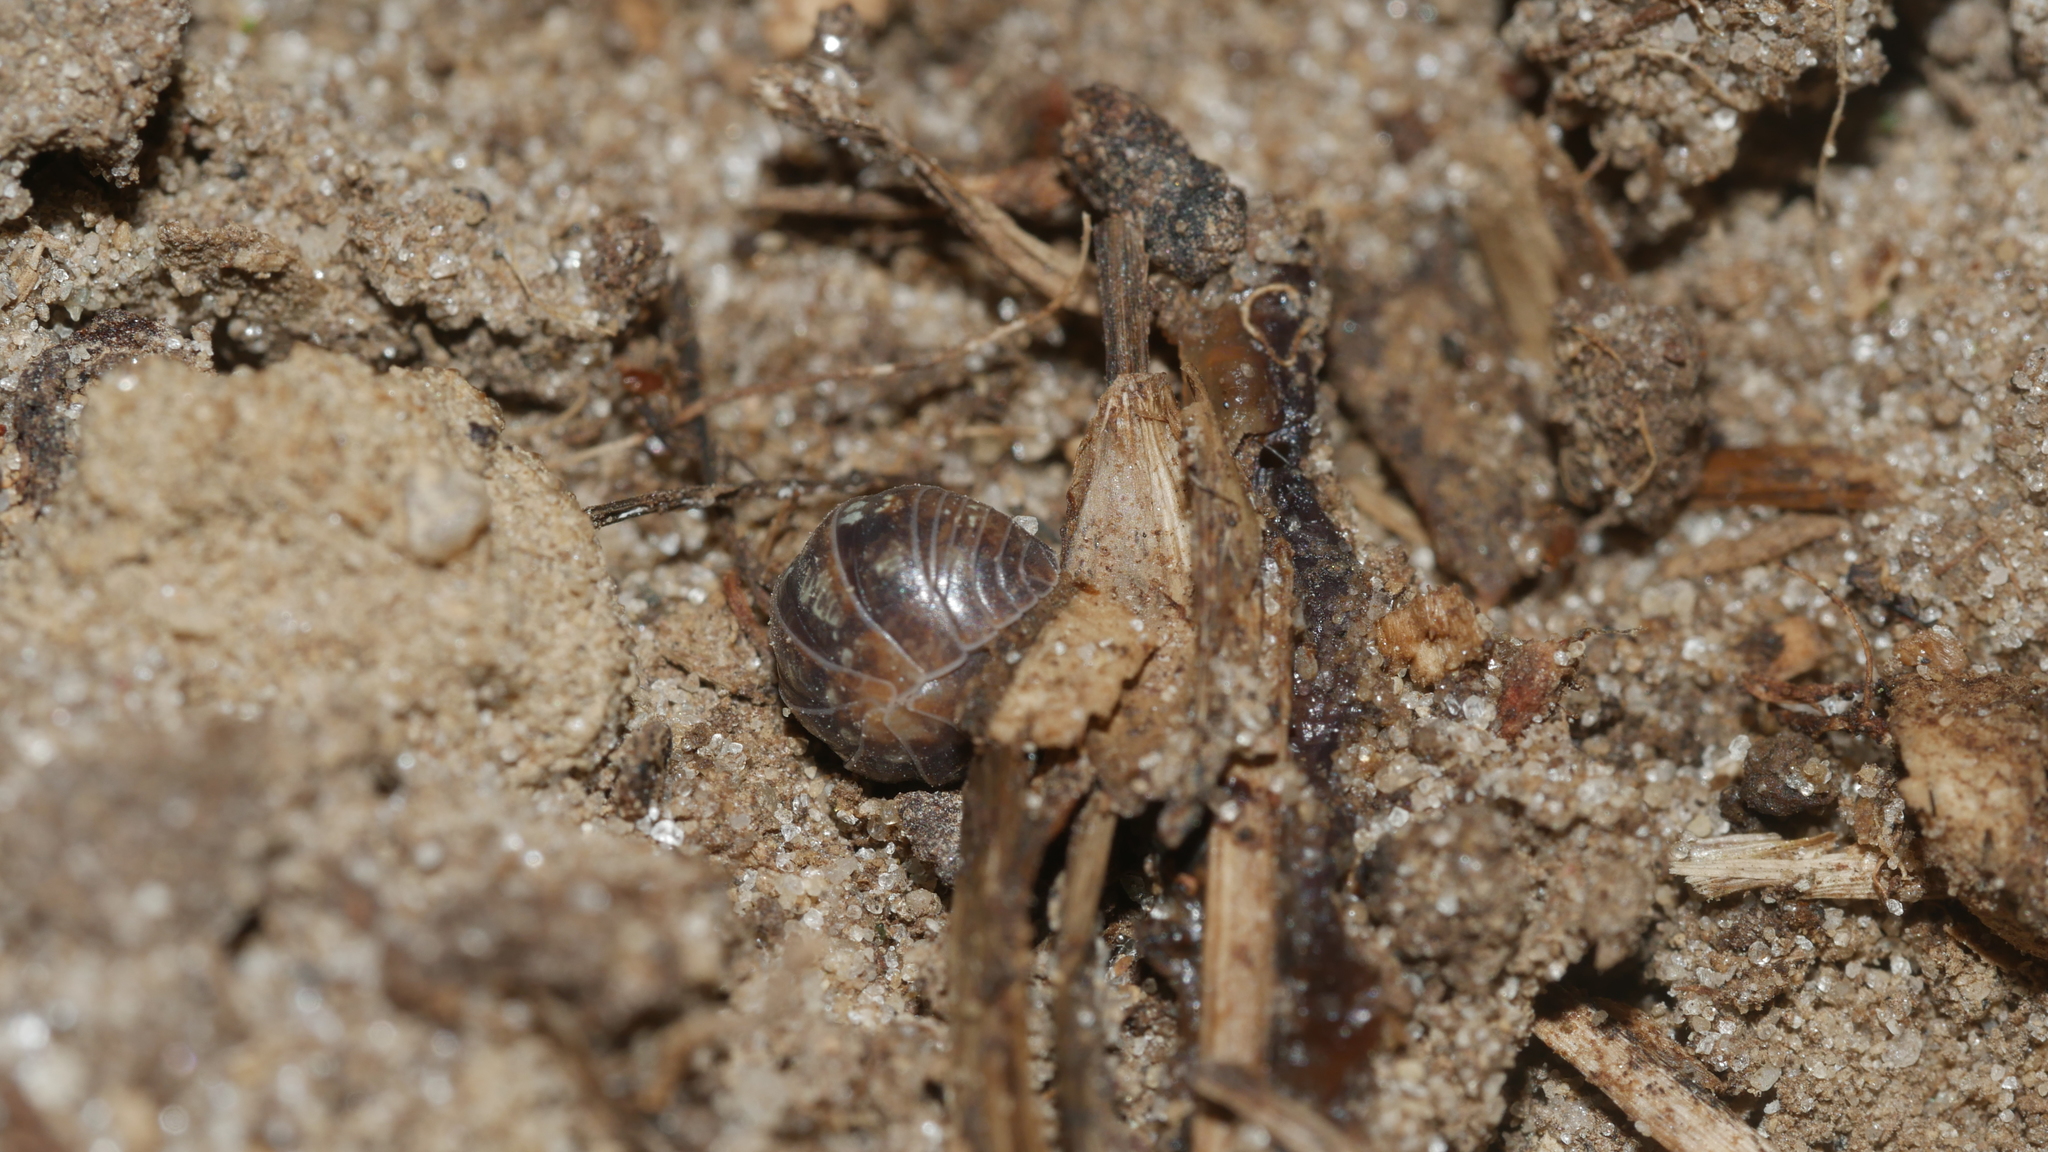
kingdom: Animalia
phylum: Arthropoda
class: Malacostraca
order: Isopoda
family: Armadillidiidae
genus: Armadillidium
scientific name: Armadillidium vulgare
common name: Common pill woodlouse
